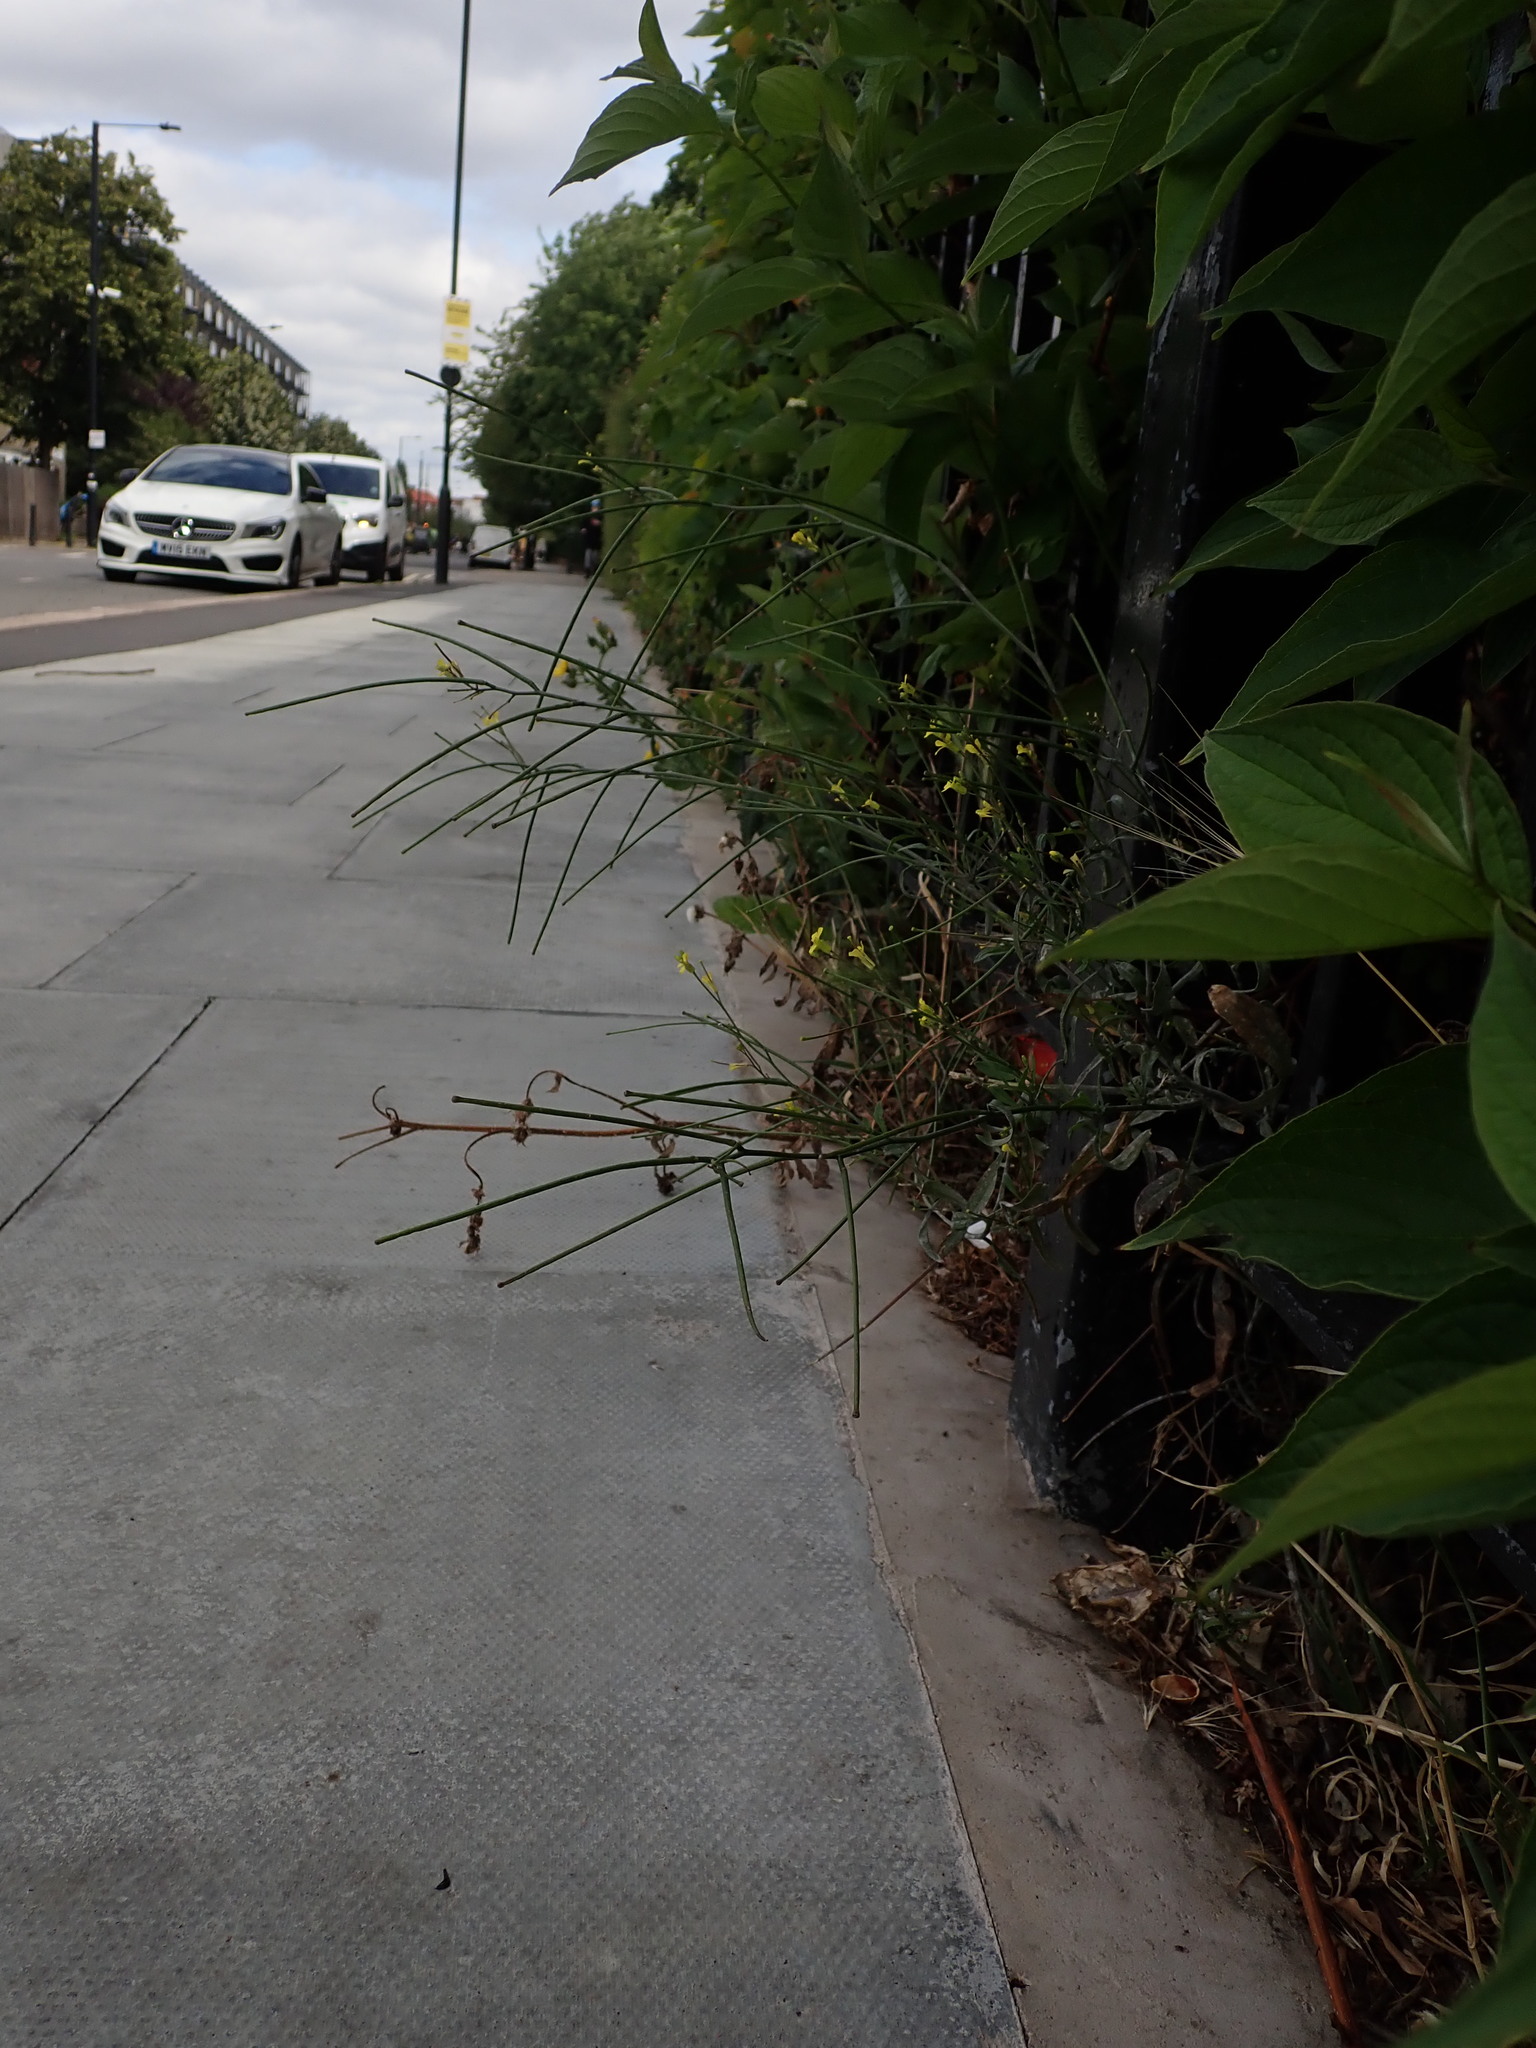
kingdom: Plantae
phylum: Tracheophyta
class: Magnoliopsida
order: Brassicales
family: Brassicaceae
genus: Sisymbrium
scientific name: Sisymbrium orientale
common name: Eastern rocket
